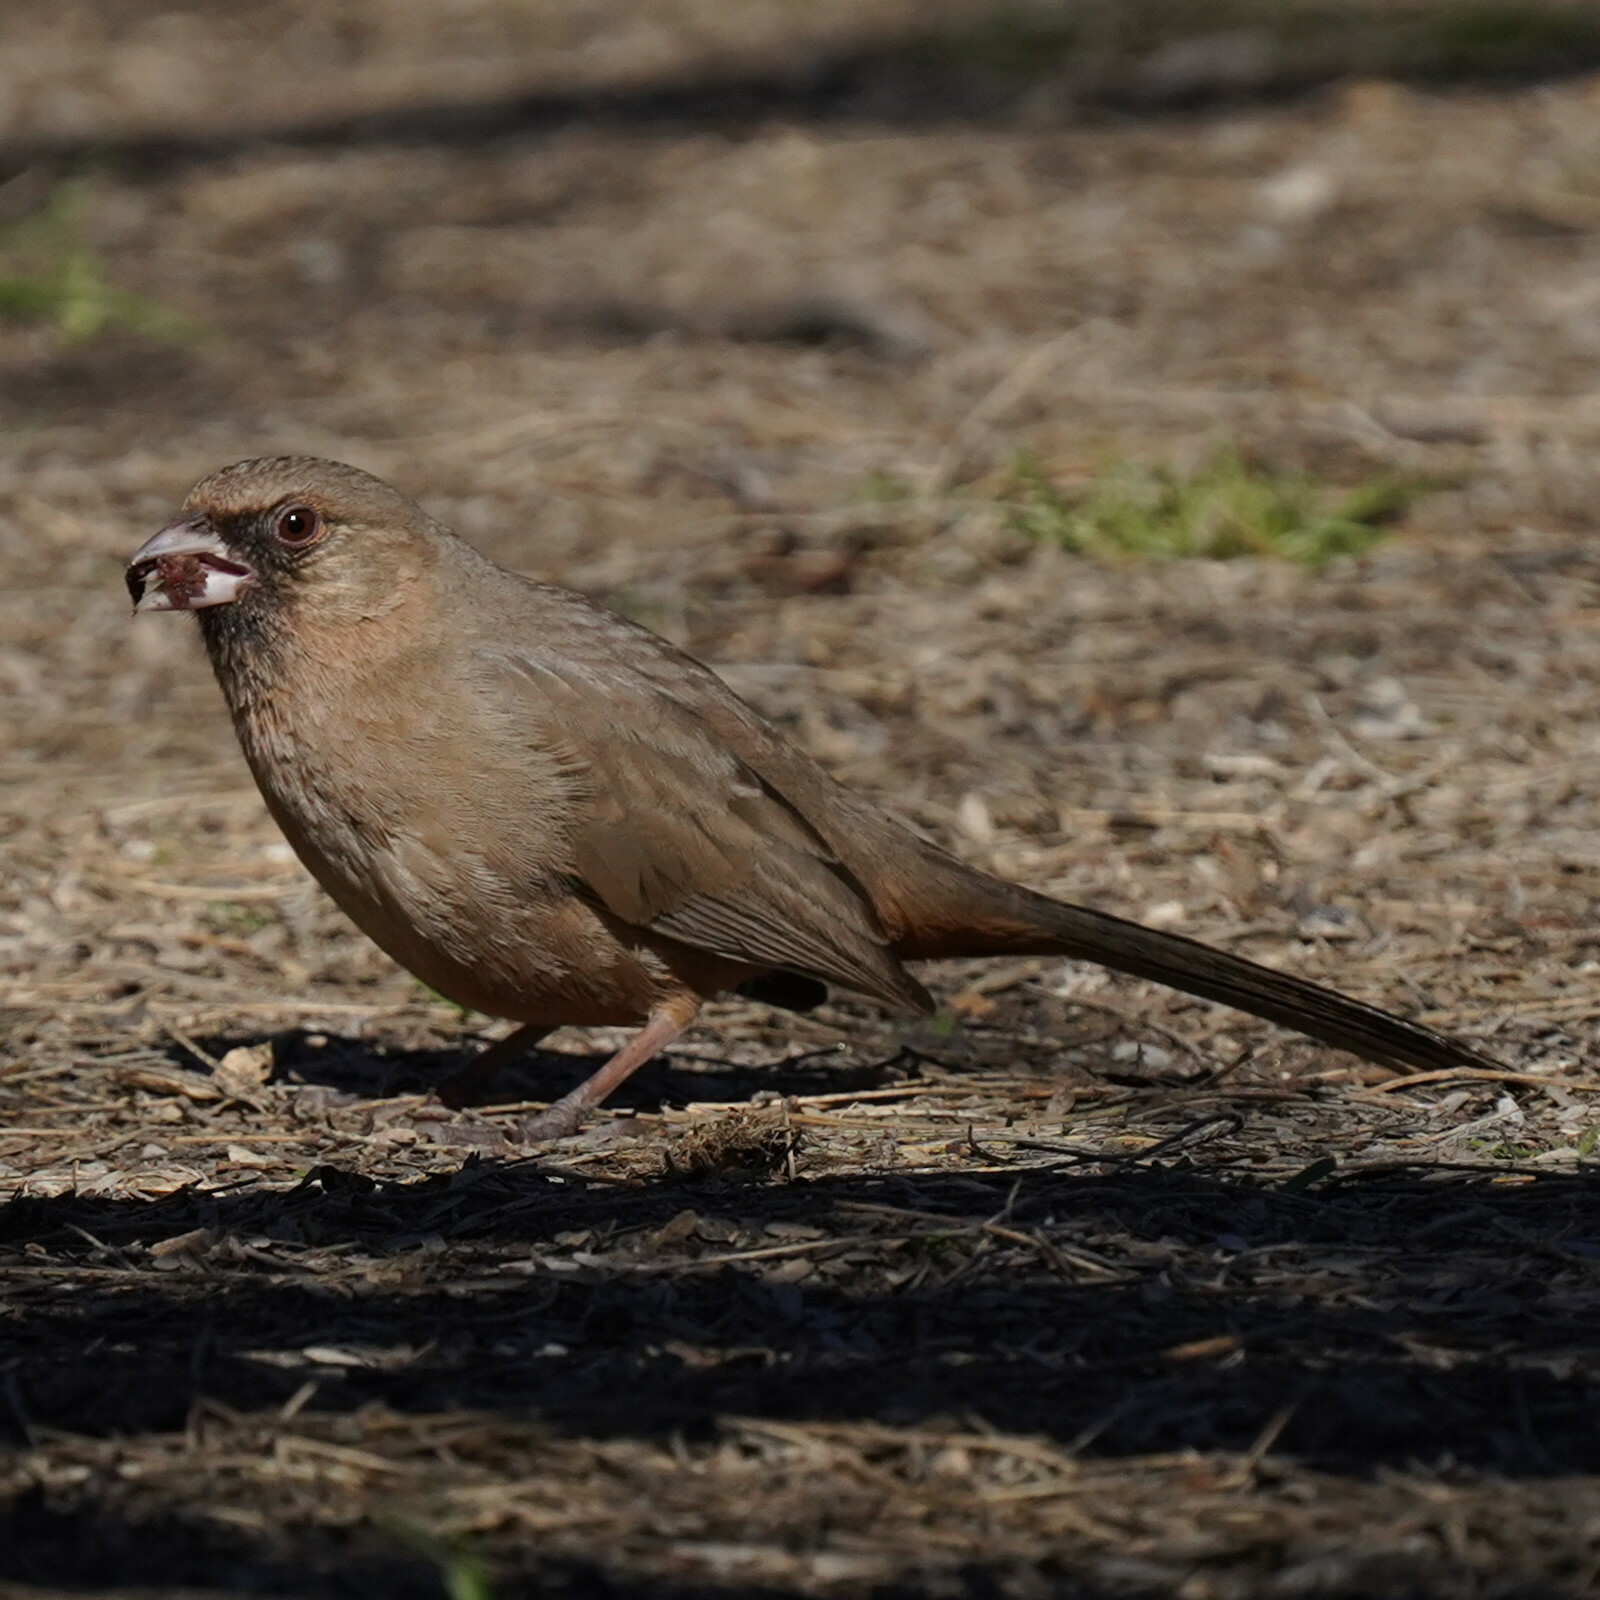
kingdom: Animalia
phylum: Chordata
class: Aves
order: Passeriformes
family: Passerellidae
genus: Melozone
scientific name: Melozone aberti
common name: Abert's towhee
